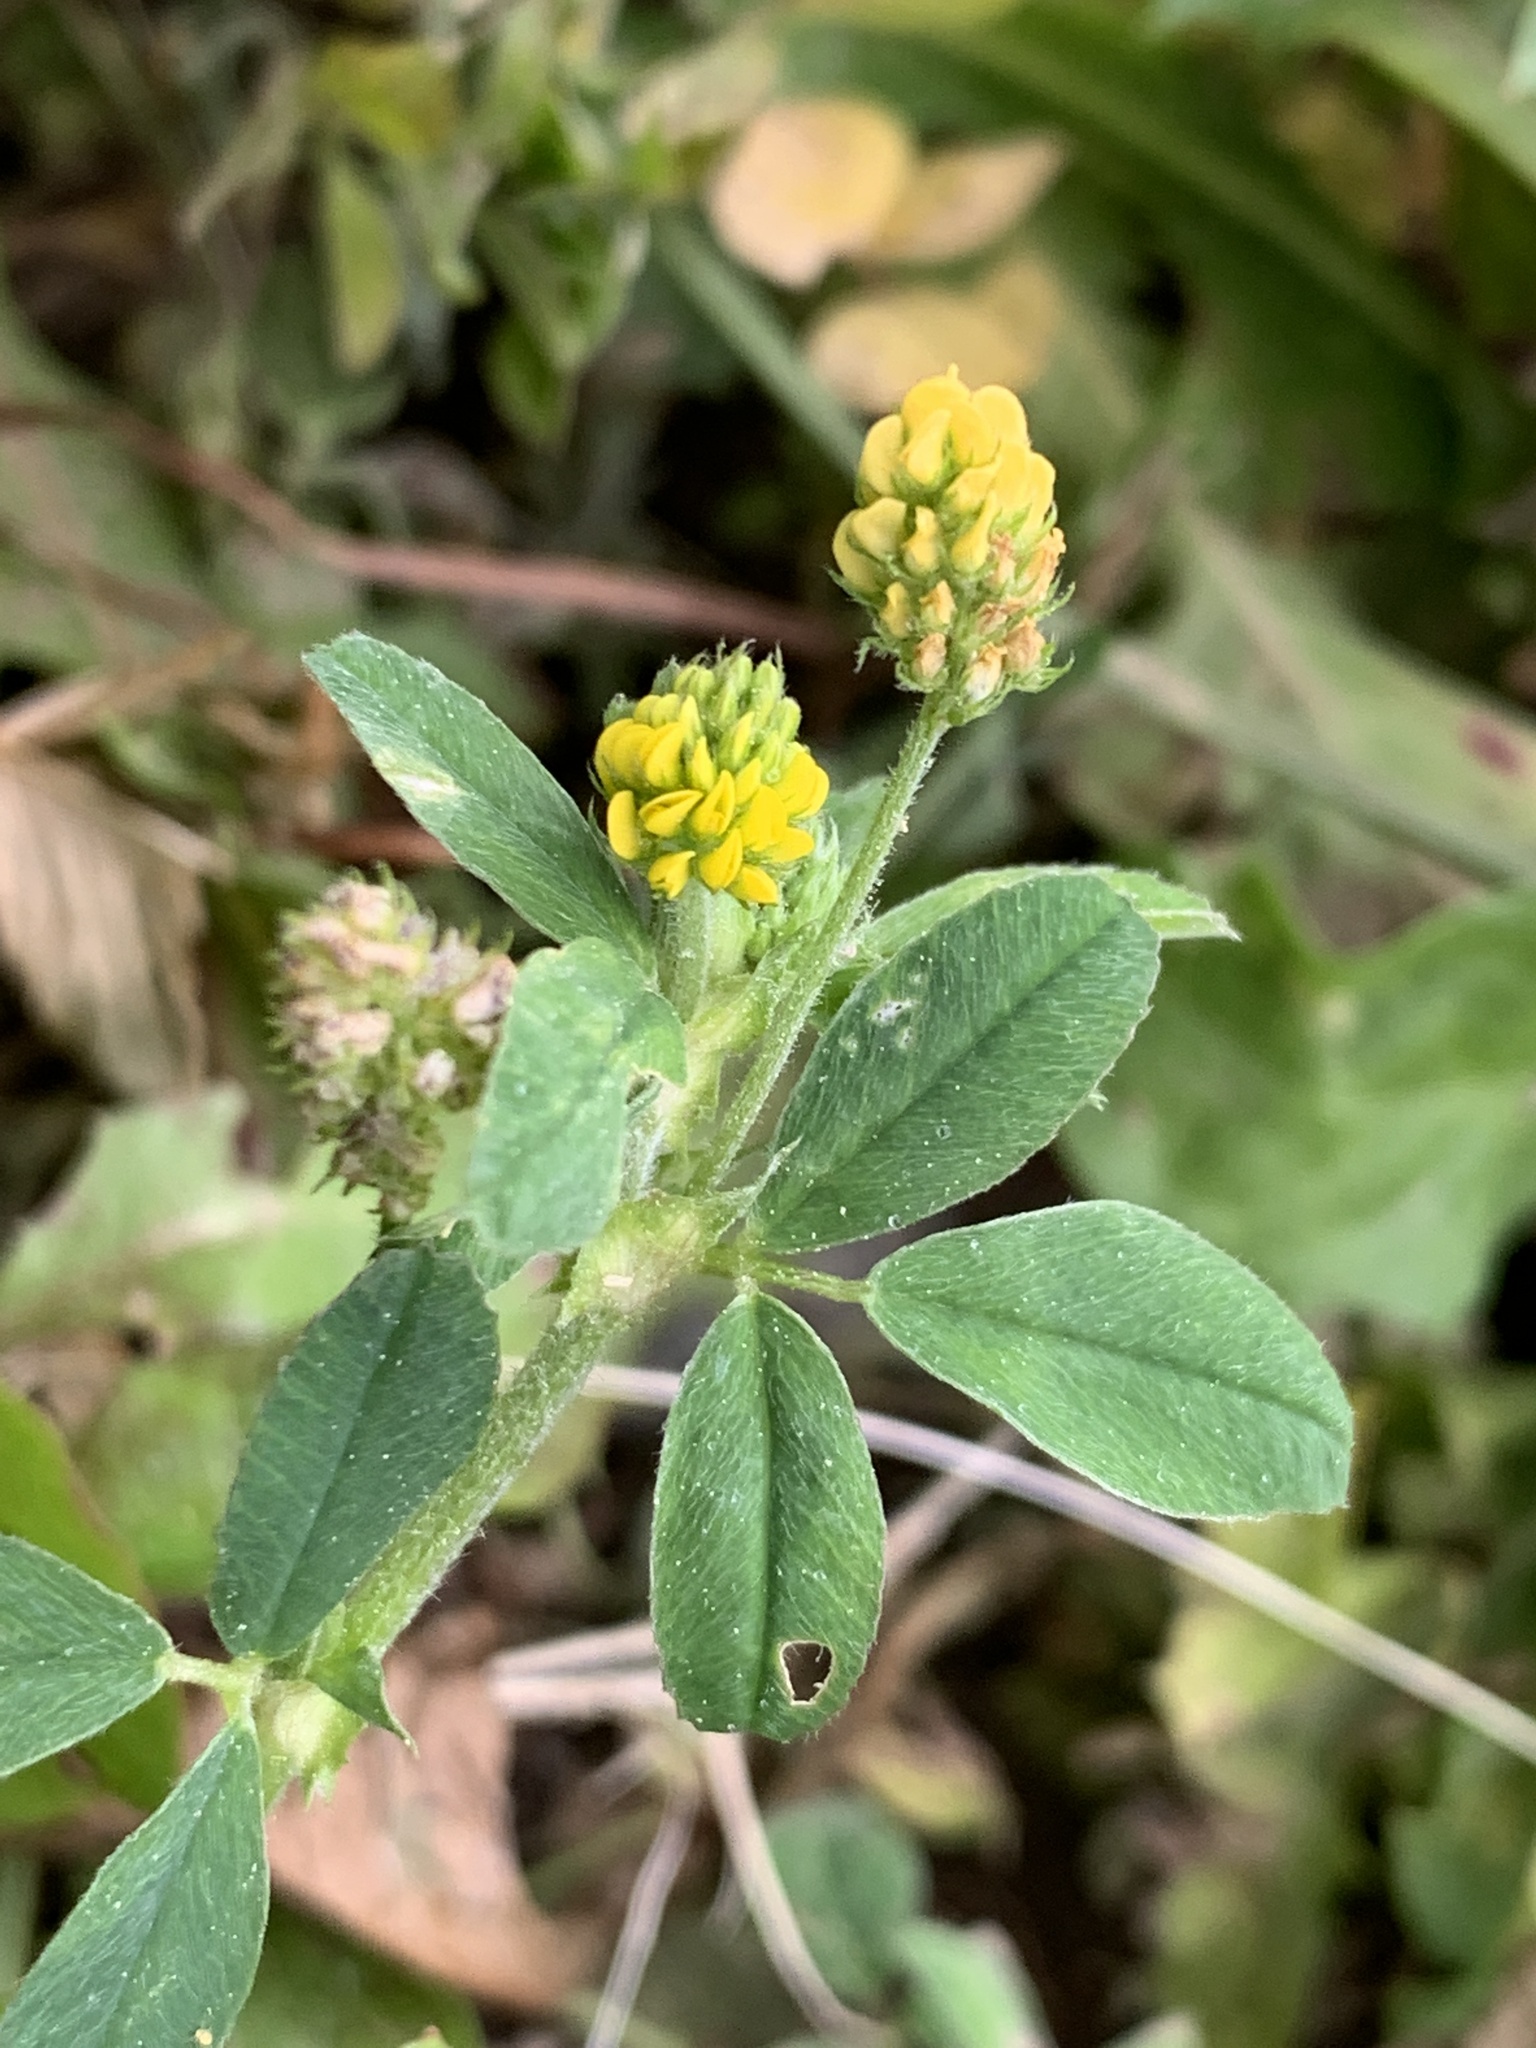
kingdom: Plantae
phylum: Tracheophyta
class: Magnoliopsida
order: Fabales
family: Fabaceae
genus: Medicago
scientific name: Medicago lupulina
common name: Black medick
